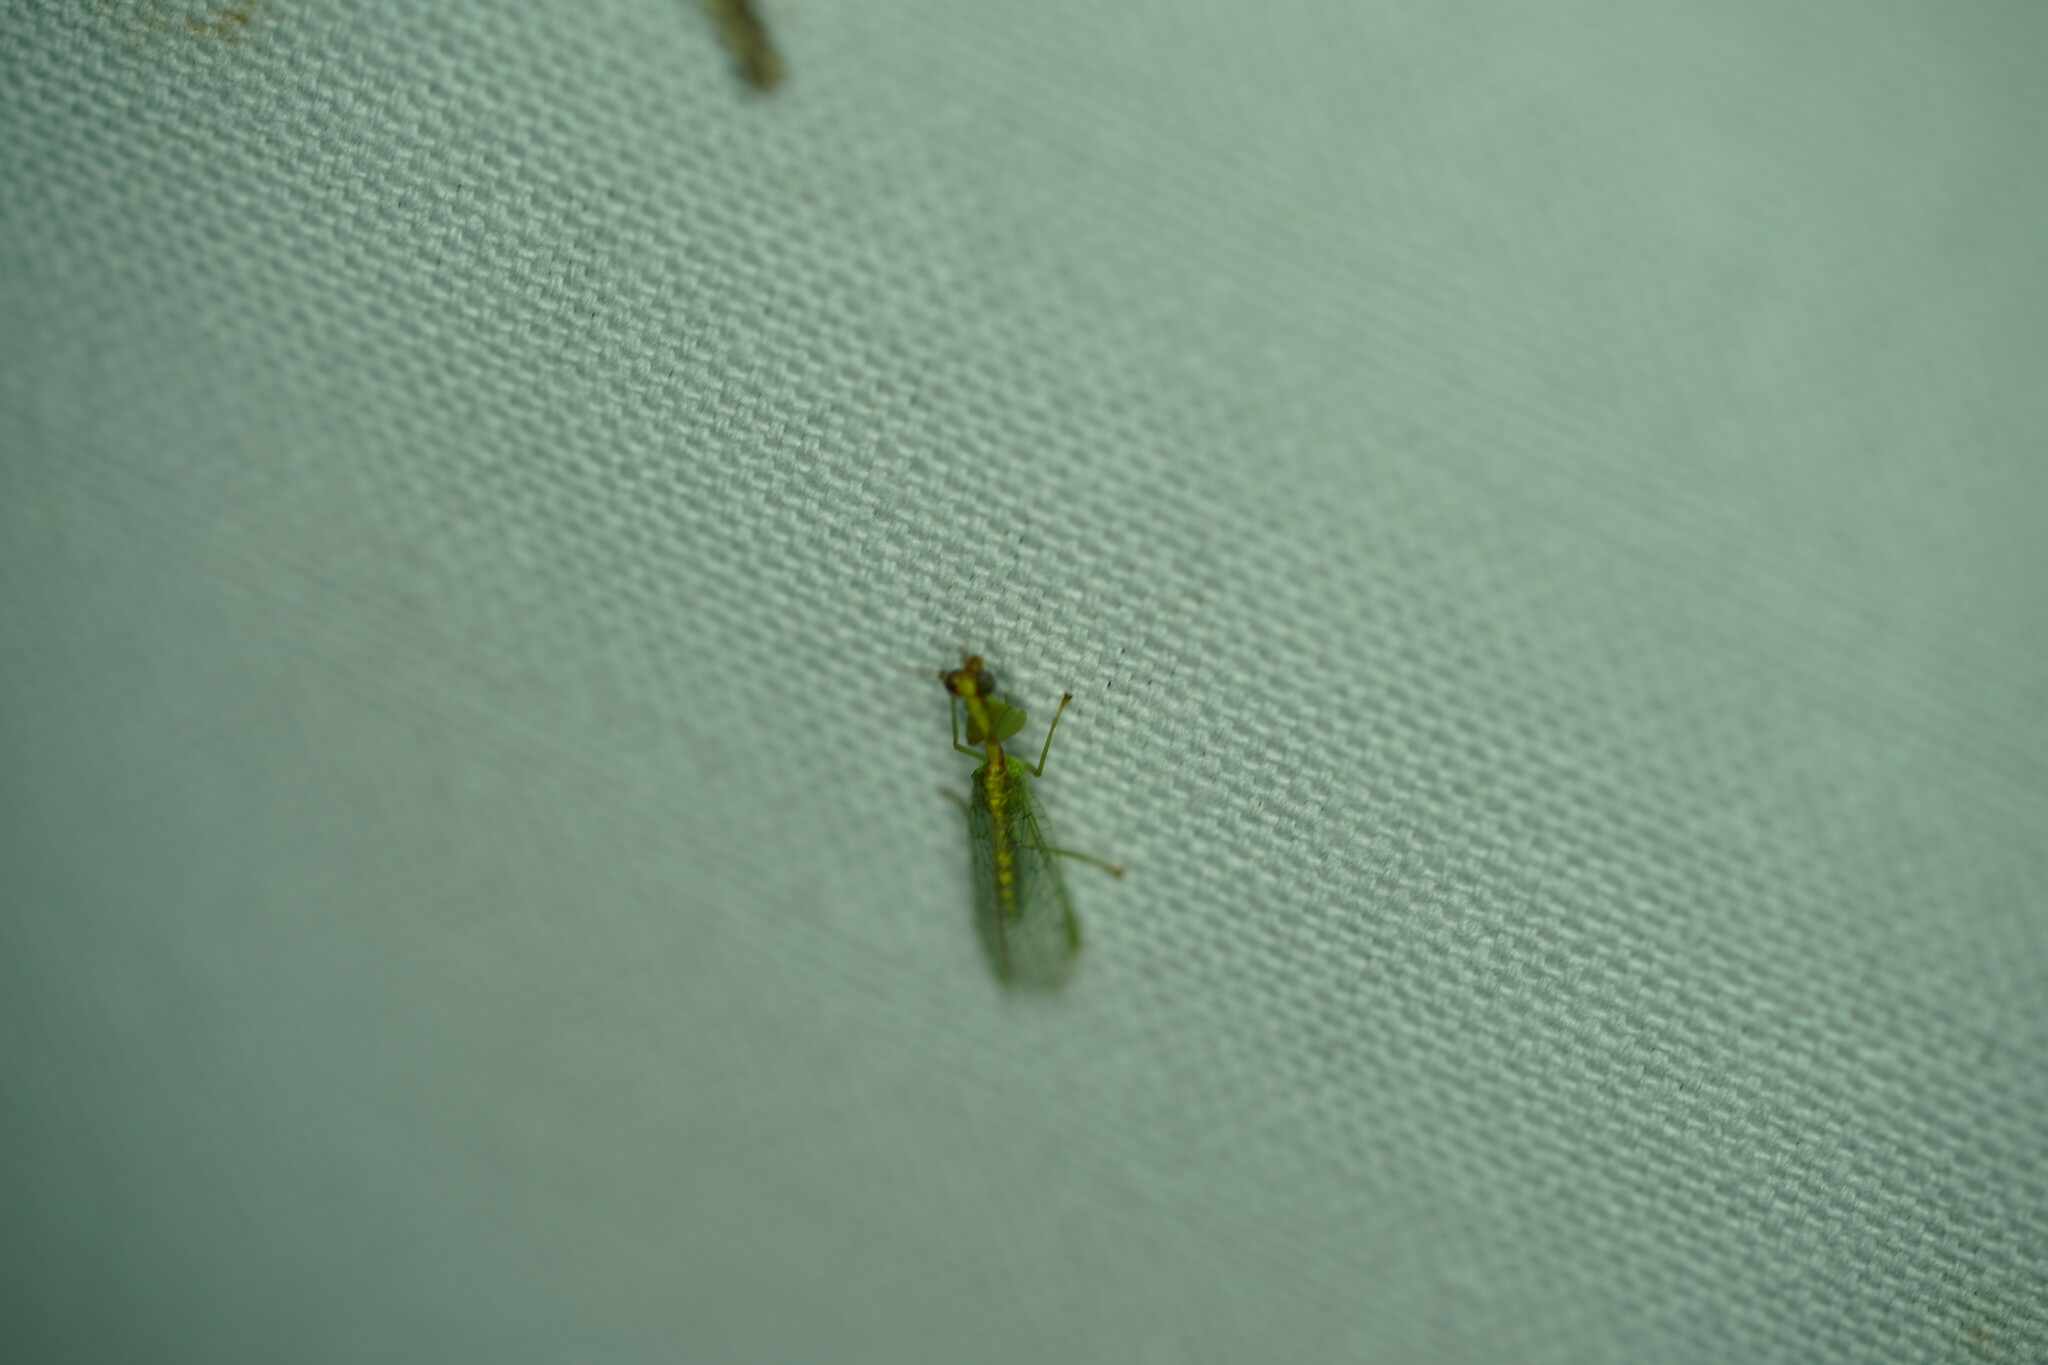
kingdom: Animalia
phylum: Arthropoda
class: Insecta
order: Neuroptera
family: Mantispidae
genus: Zeugomantispa
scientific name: Zeugomantispa minuta
